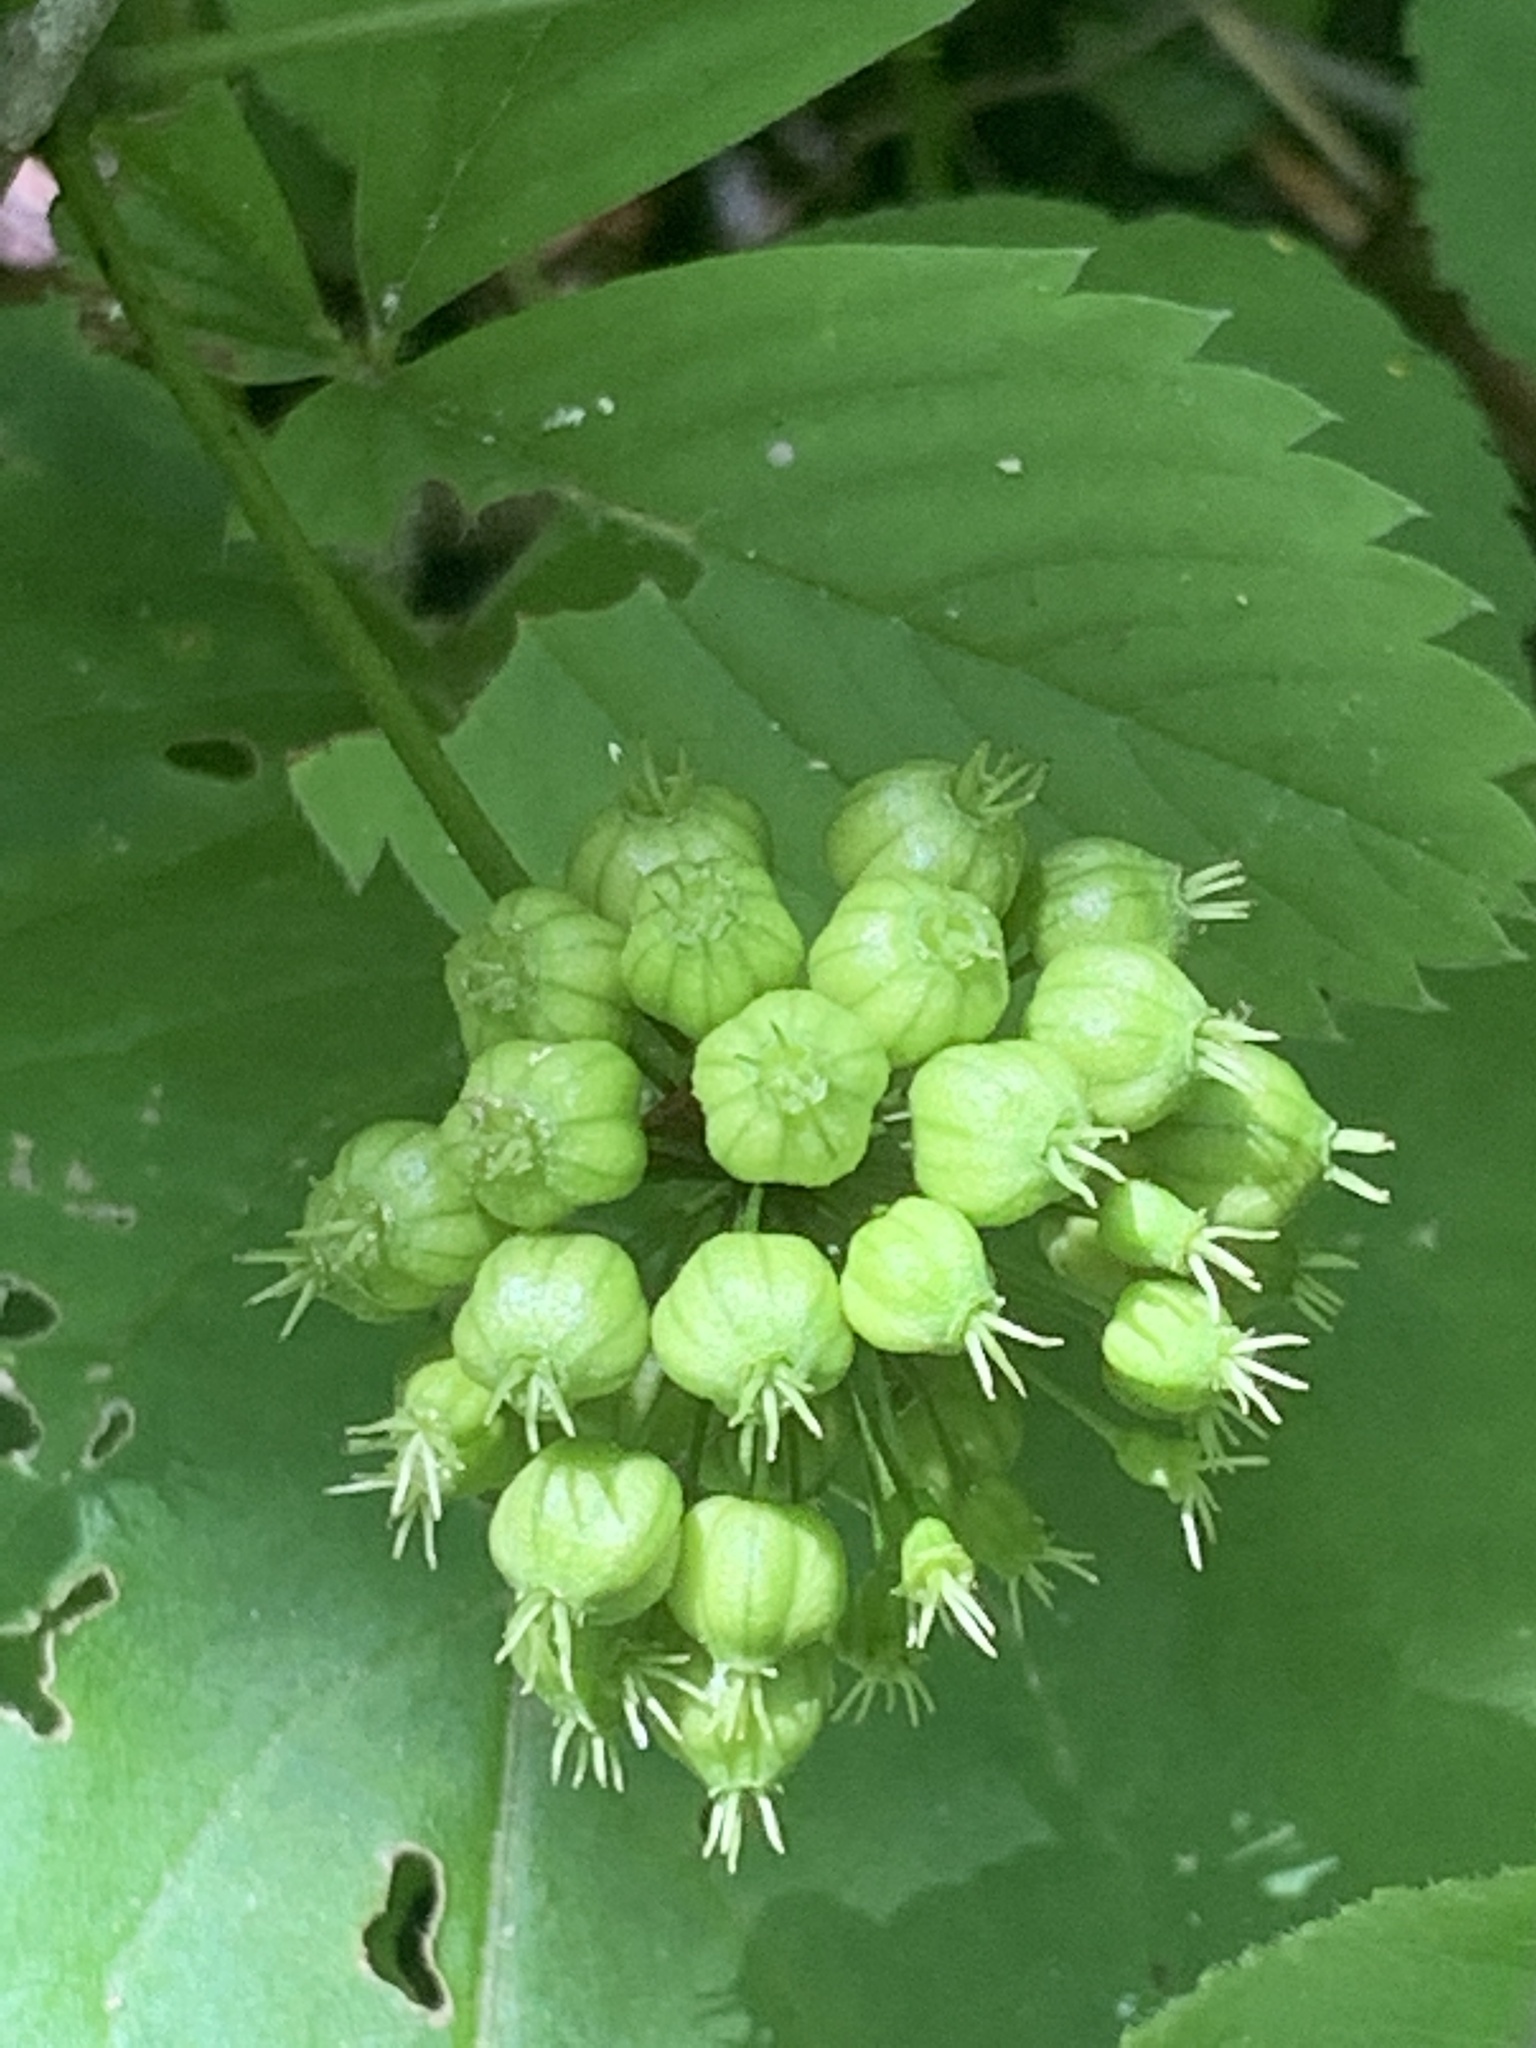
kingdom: Plantae
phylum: Tracheophyta
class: Magnoliopsida
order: Apiales
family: Araliaceae
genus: Aralia
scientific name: Aralia nudicaulis
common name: Wild sarsaparilla
